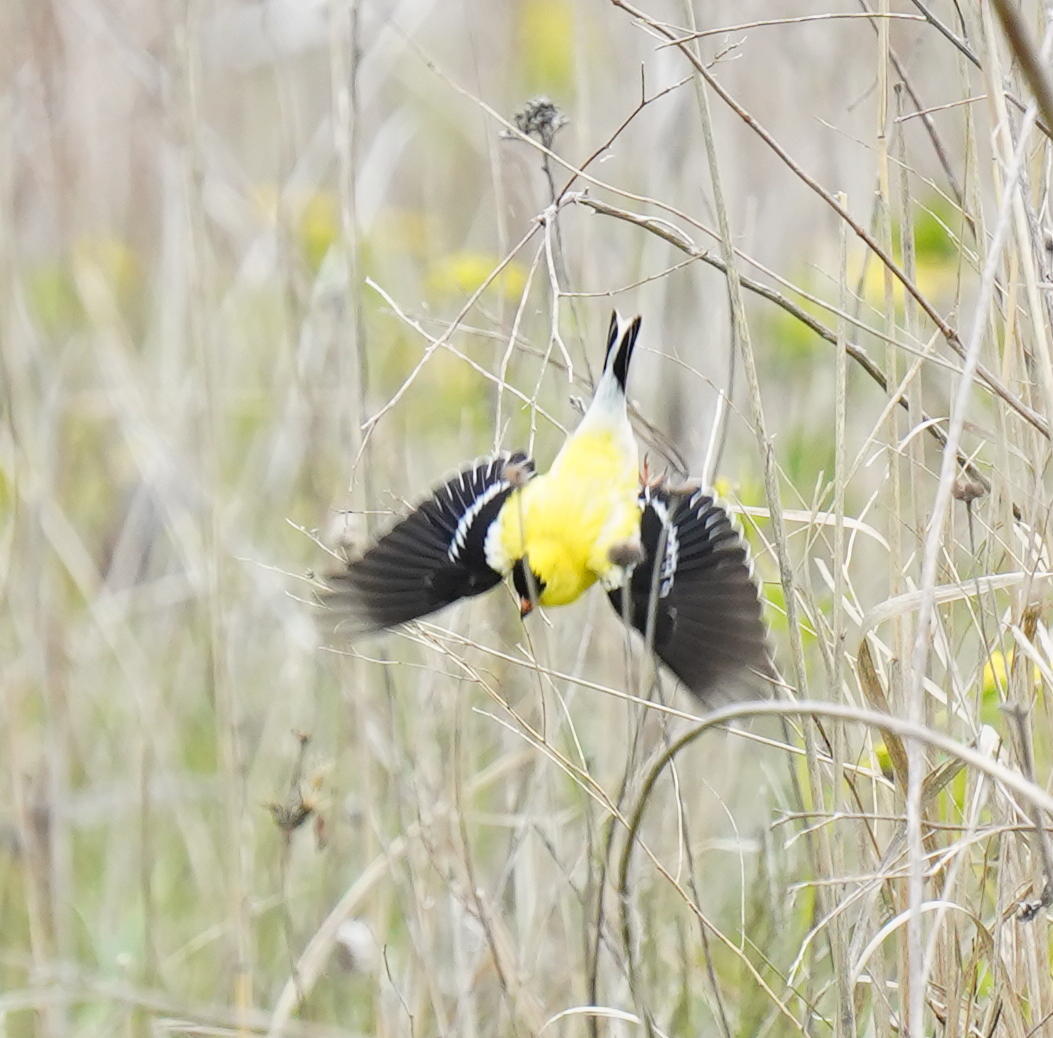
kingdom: Animalia
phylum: Chordata
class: Aves
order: Passeriformes
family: Fringillidae
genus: Spinus
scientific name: Spinus tristis
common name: American goldfinch
